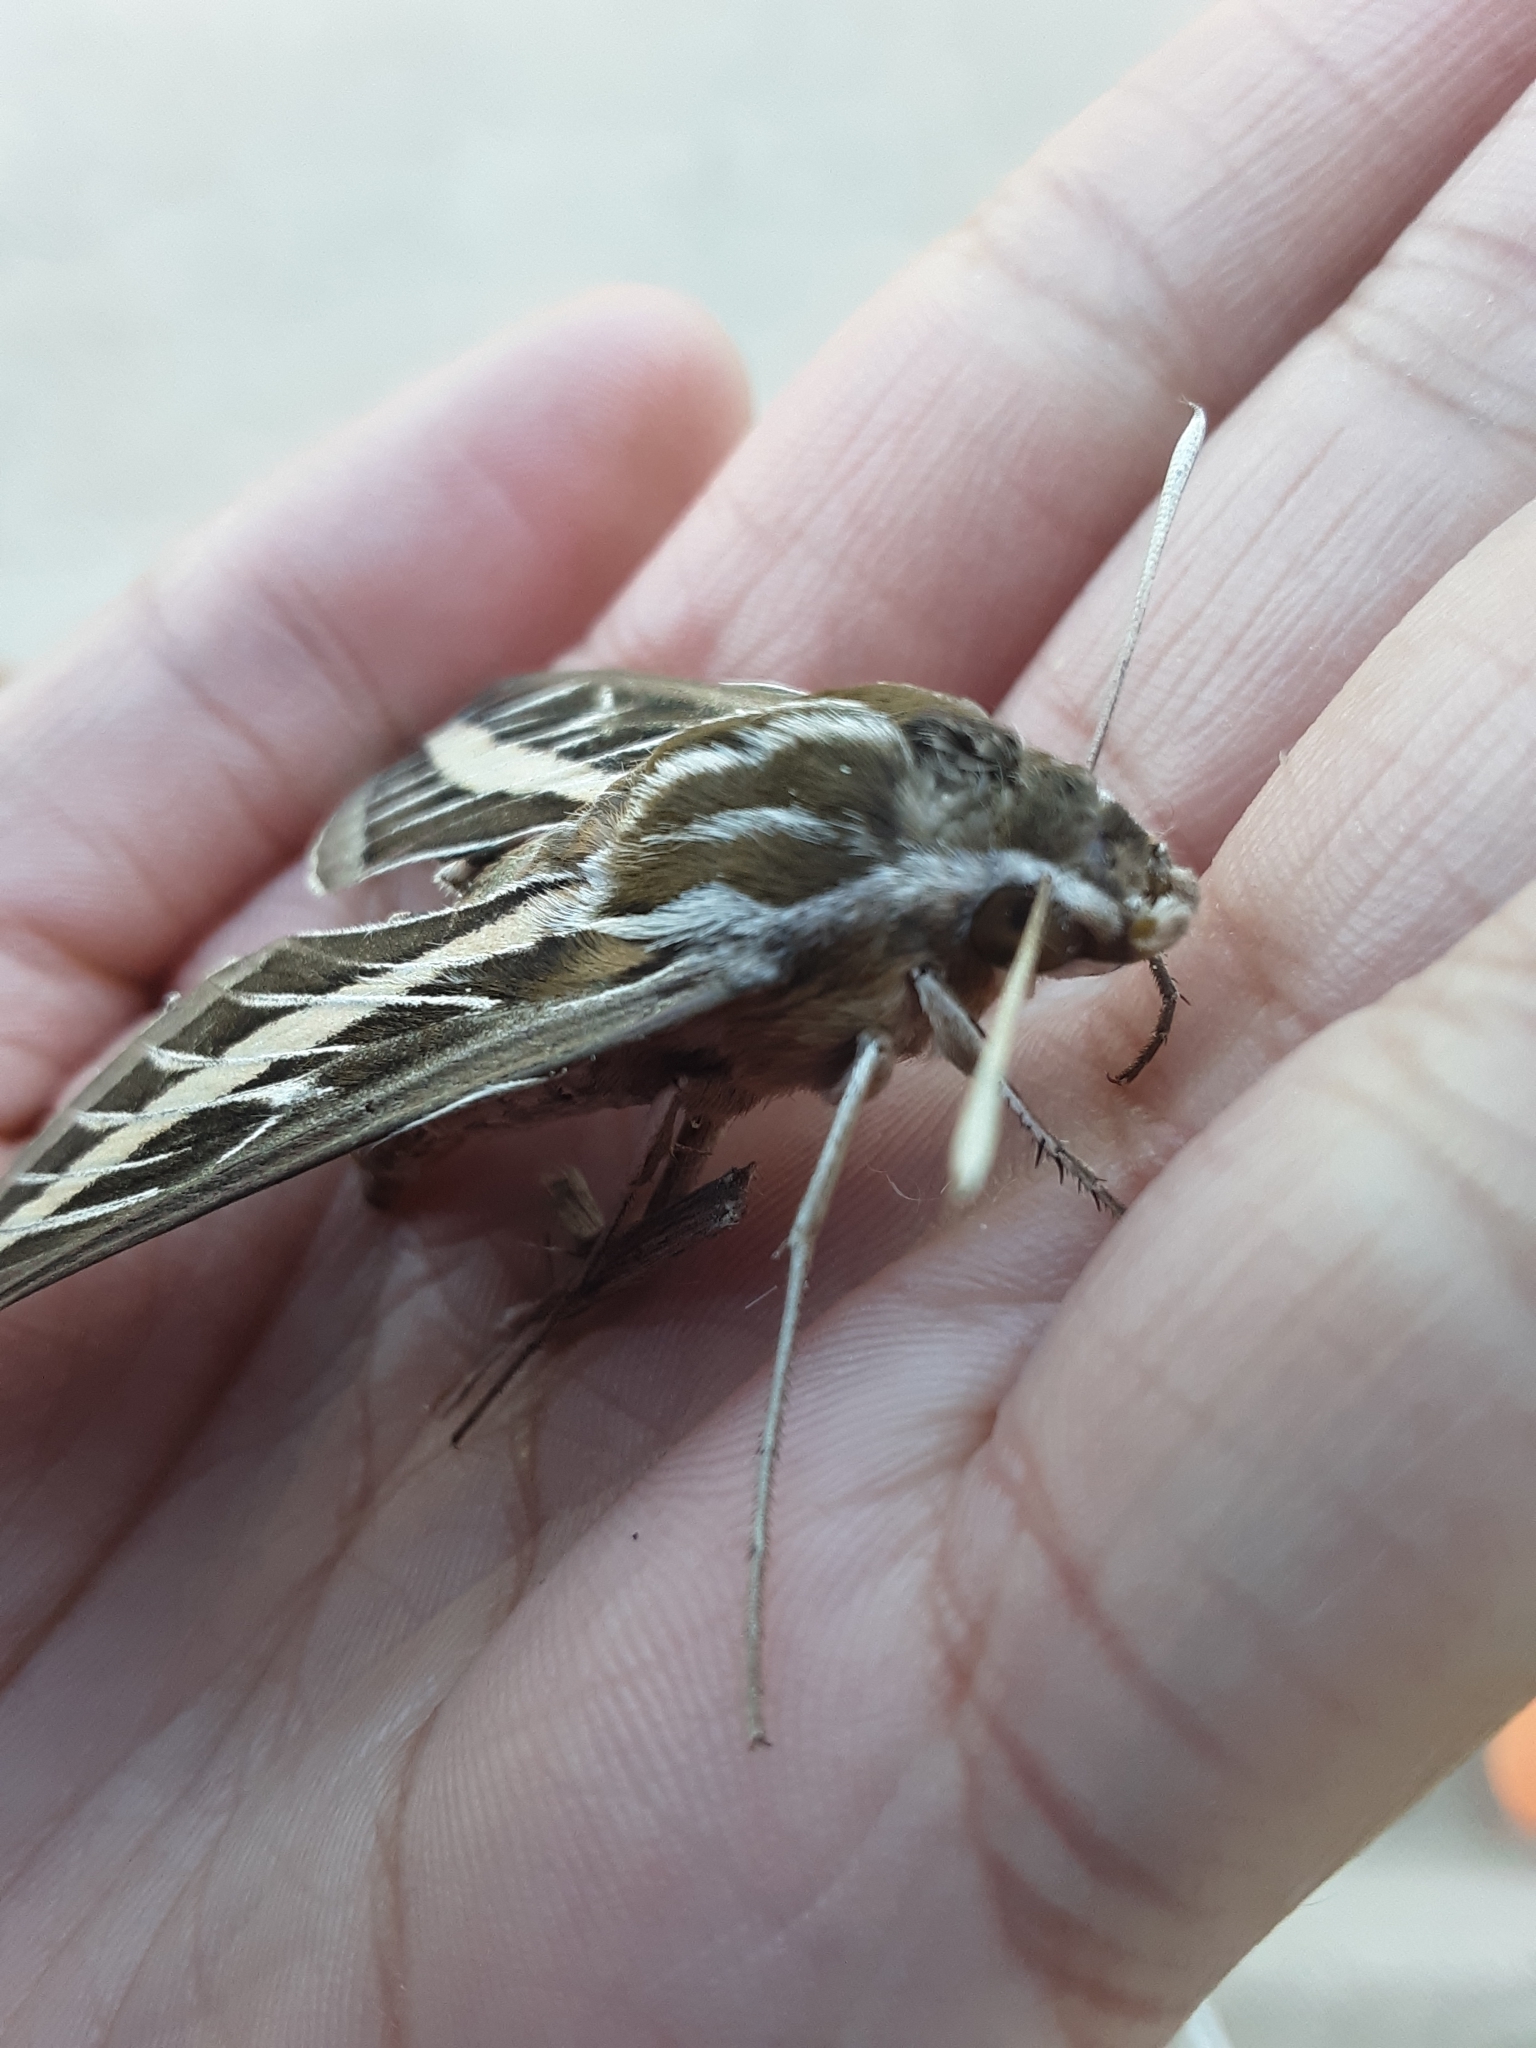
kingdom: Animalia
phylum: Arthropoda
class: Insecta
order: Lepidoptera
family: Sphingidae
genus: Hyles
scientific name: Hyles lineata
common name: White-lined sphinx
